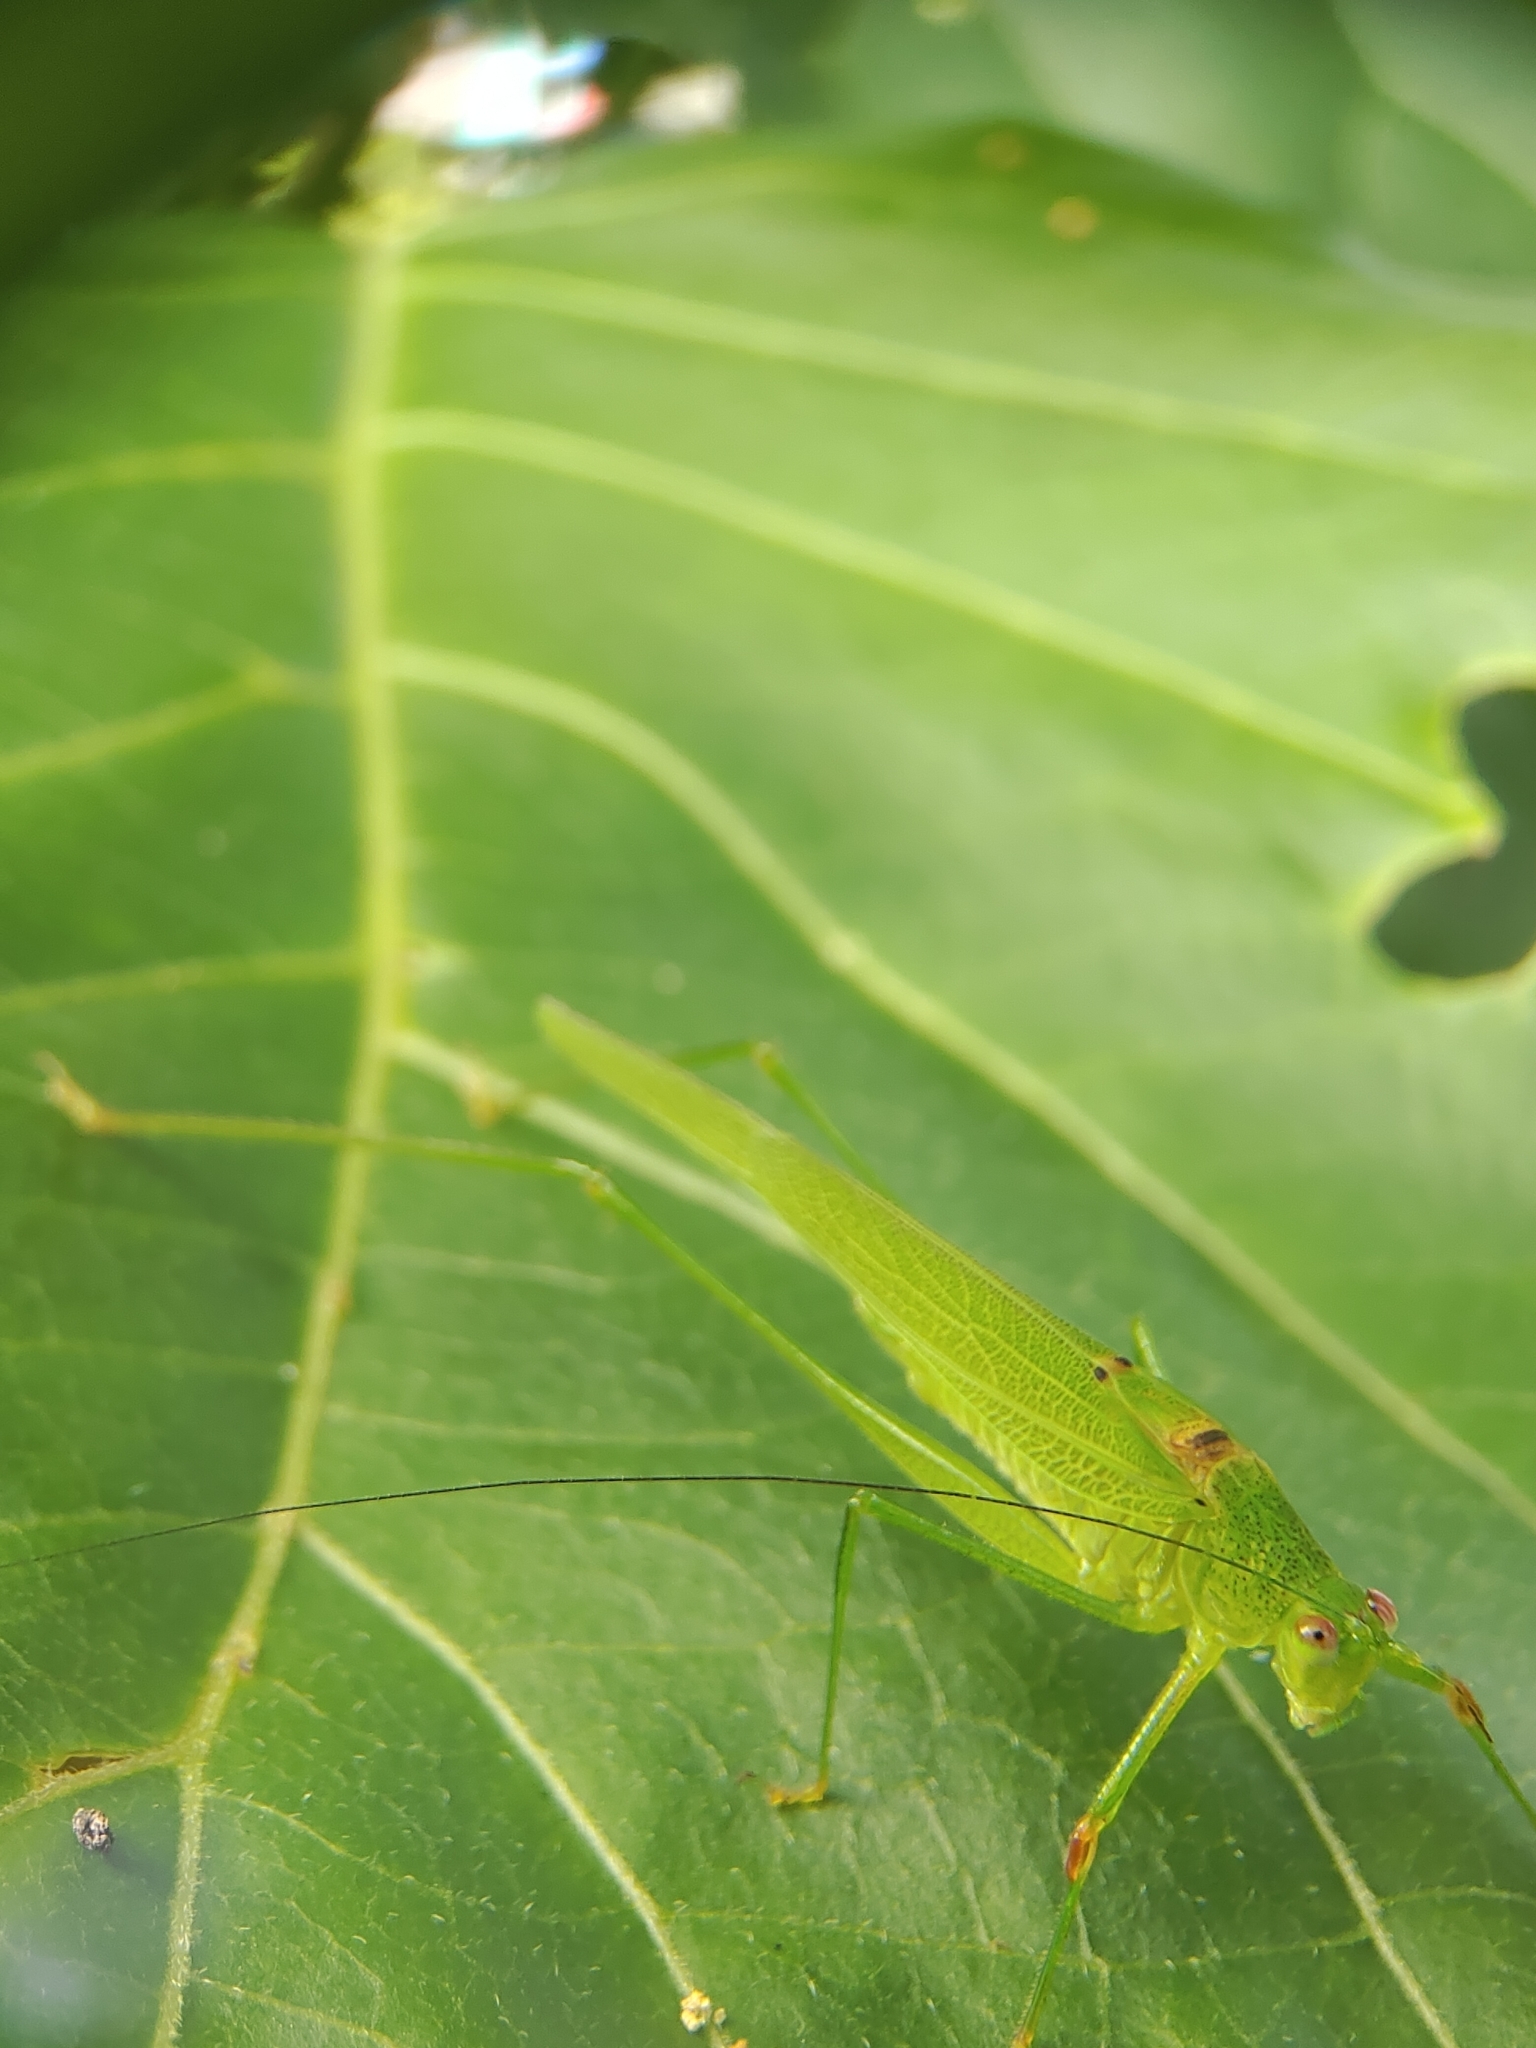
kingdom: Animalia
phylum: Arthropoda
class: Insecta
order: Orthoptera
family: Tettigoniidae
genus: Phaneroptera
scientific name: Phaneroptera brevis
